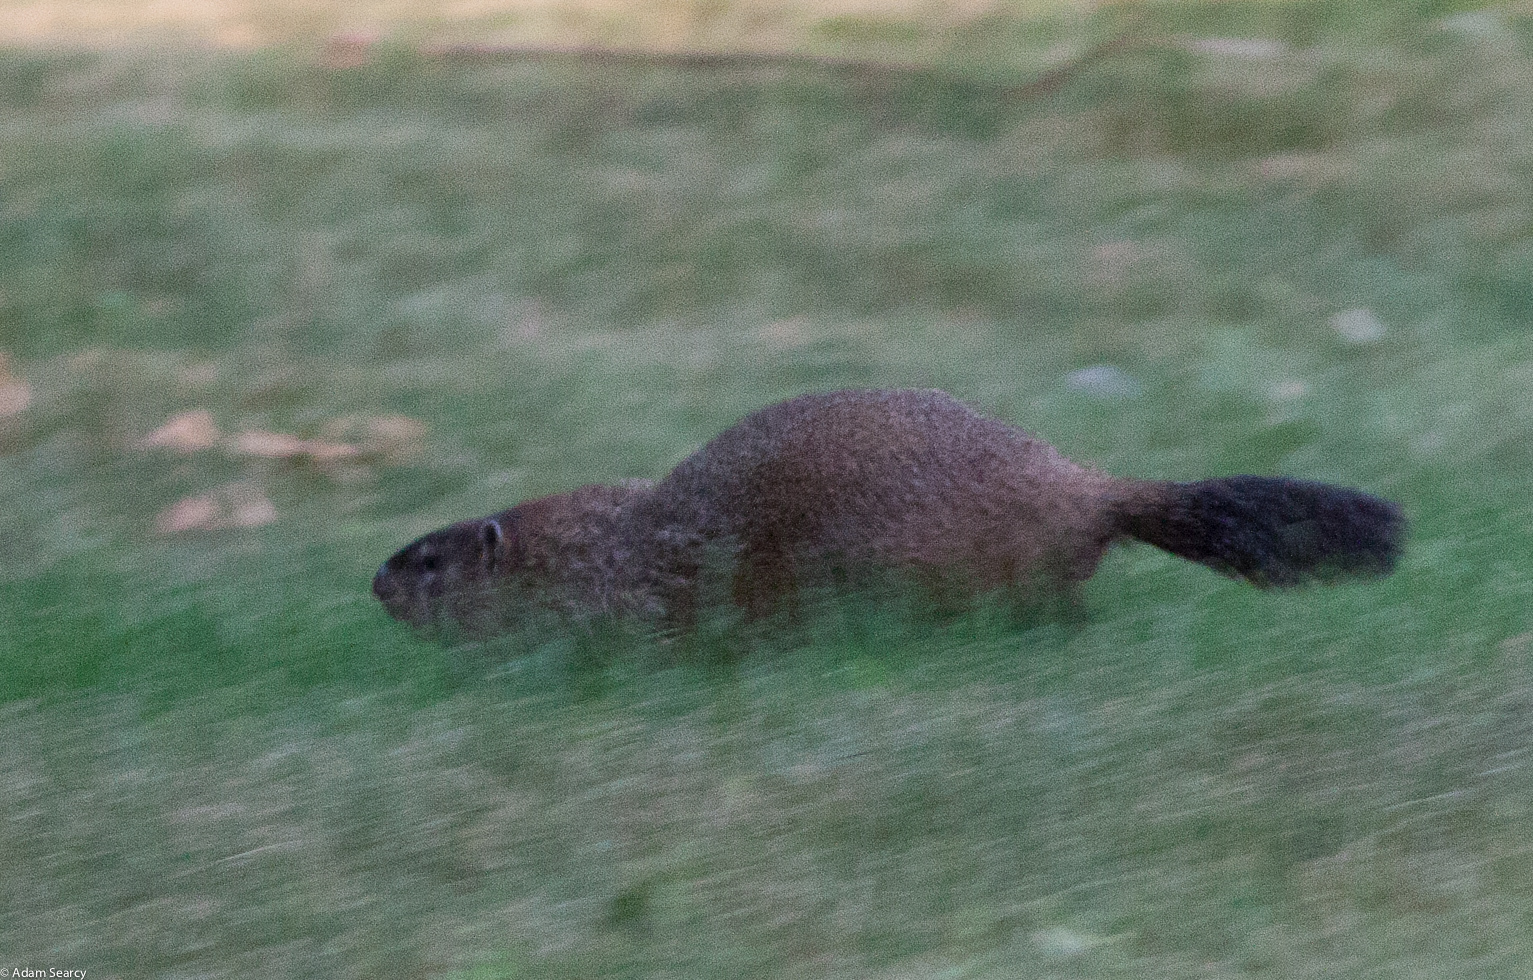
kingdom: Animalia
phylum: Chordata
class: Mammalia
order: Rodentia
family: Sciuridae
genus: Marmota
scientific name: Marmota monax
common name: Groundhog
